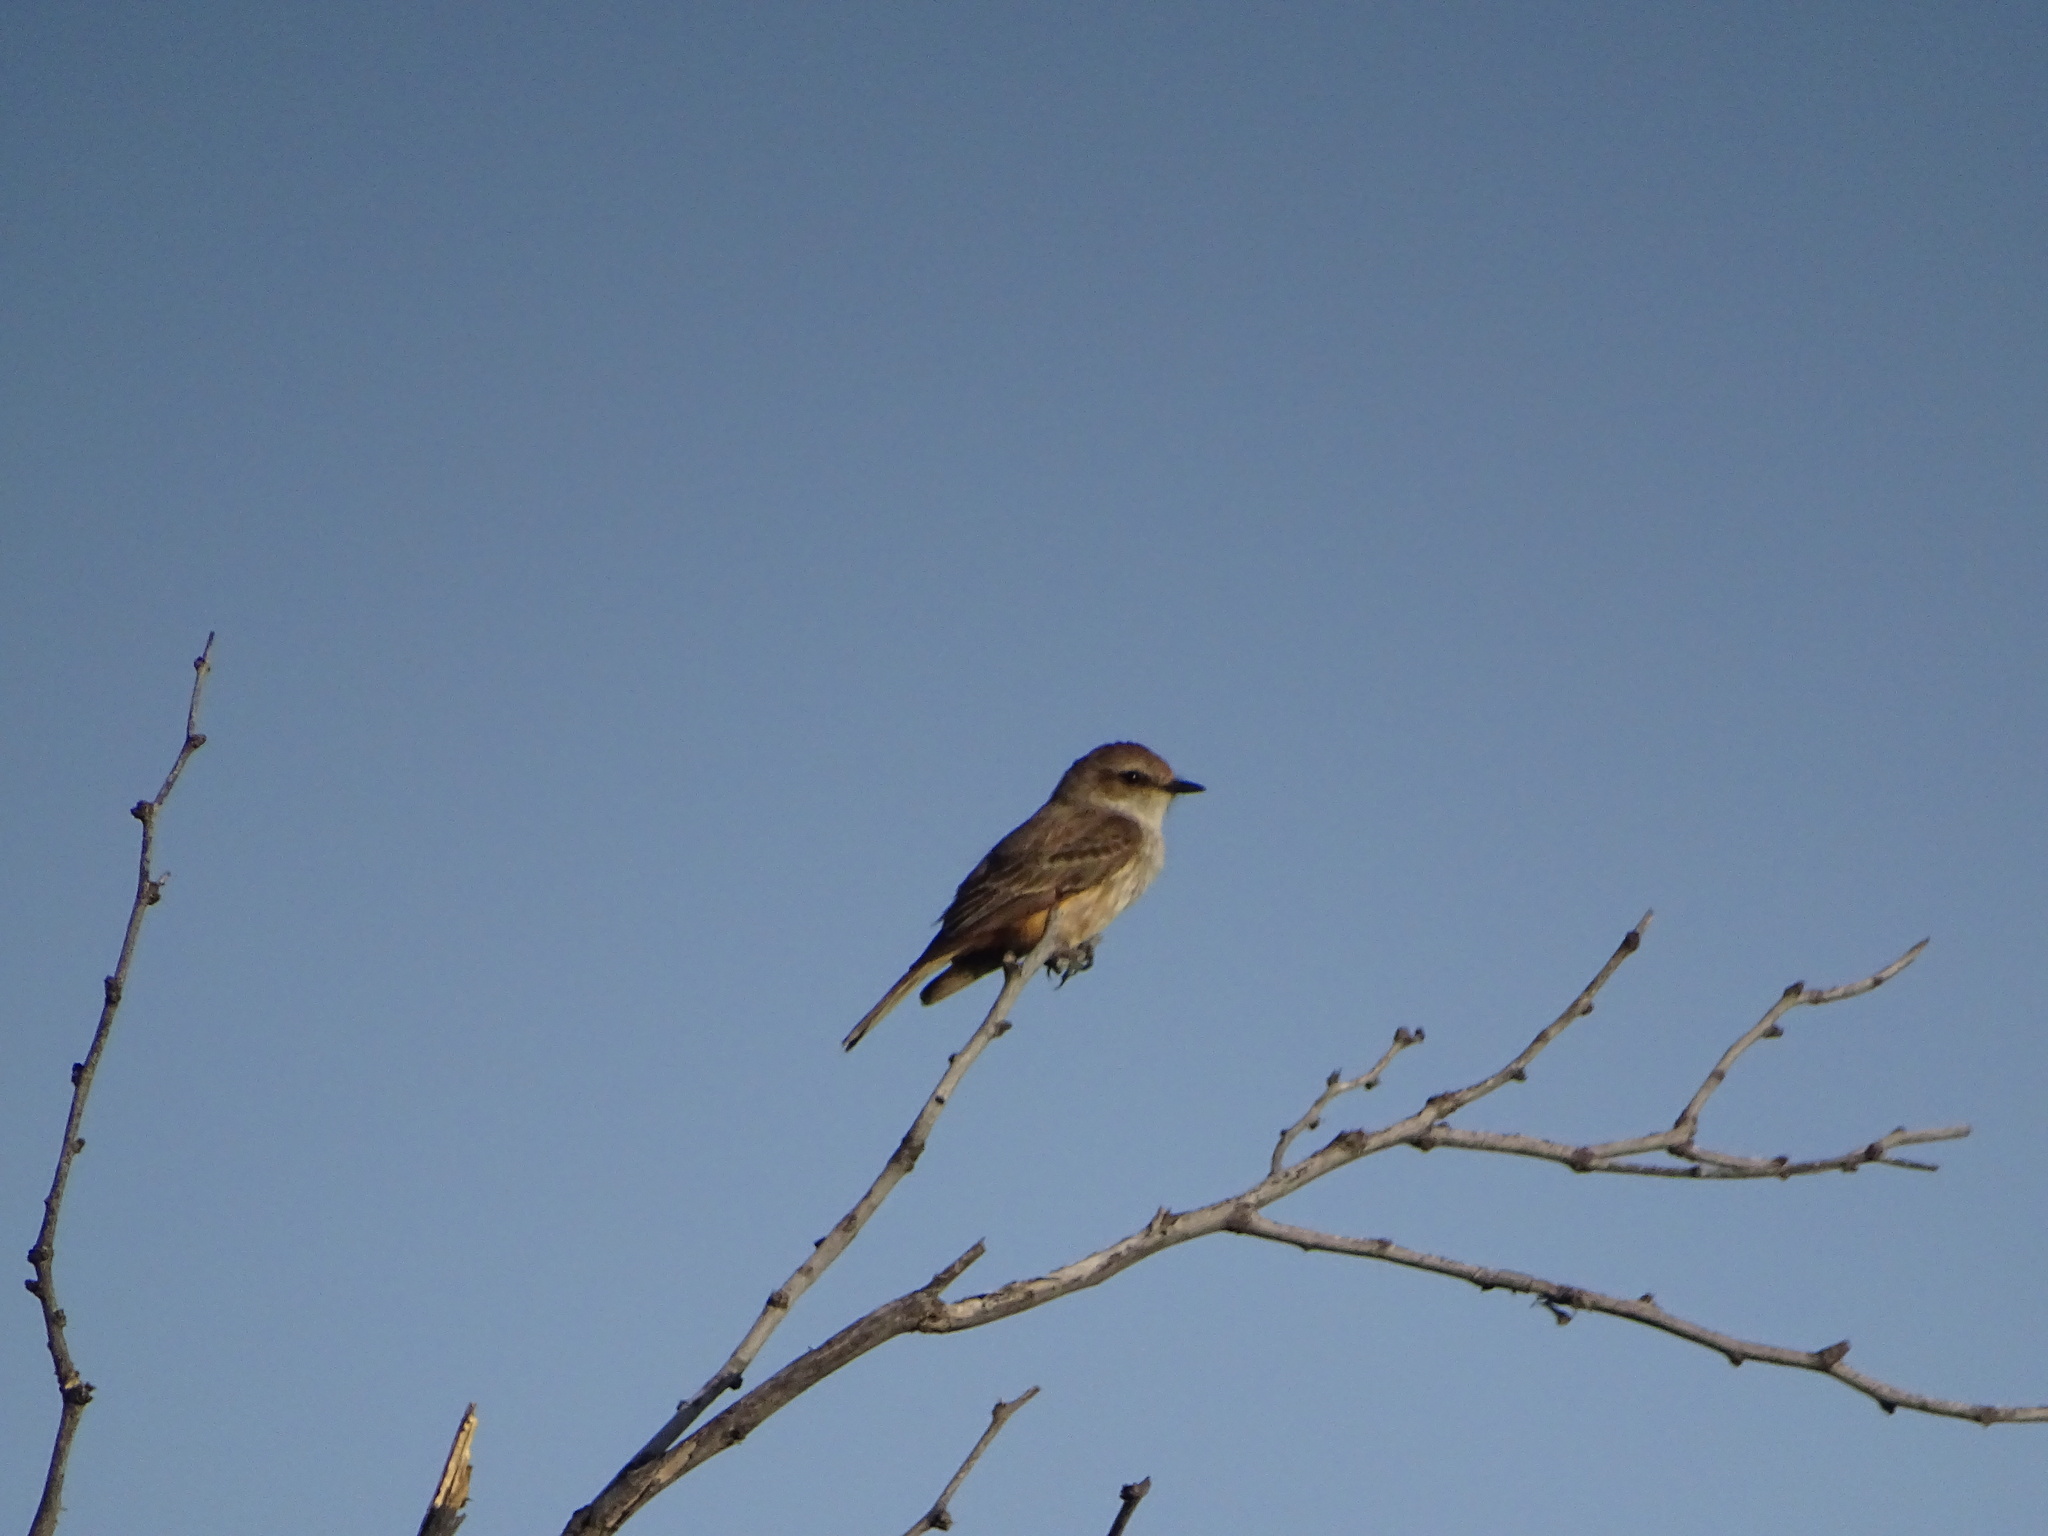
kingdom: Animalia
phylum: Chordata
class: Aves
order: Passeriformes
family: Tyrannidae
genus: Pyrocephalus
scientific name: Pyrocephalus rubinus
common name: Vermilion flycatcher
